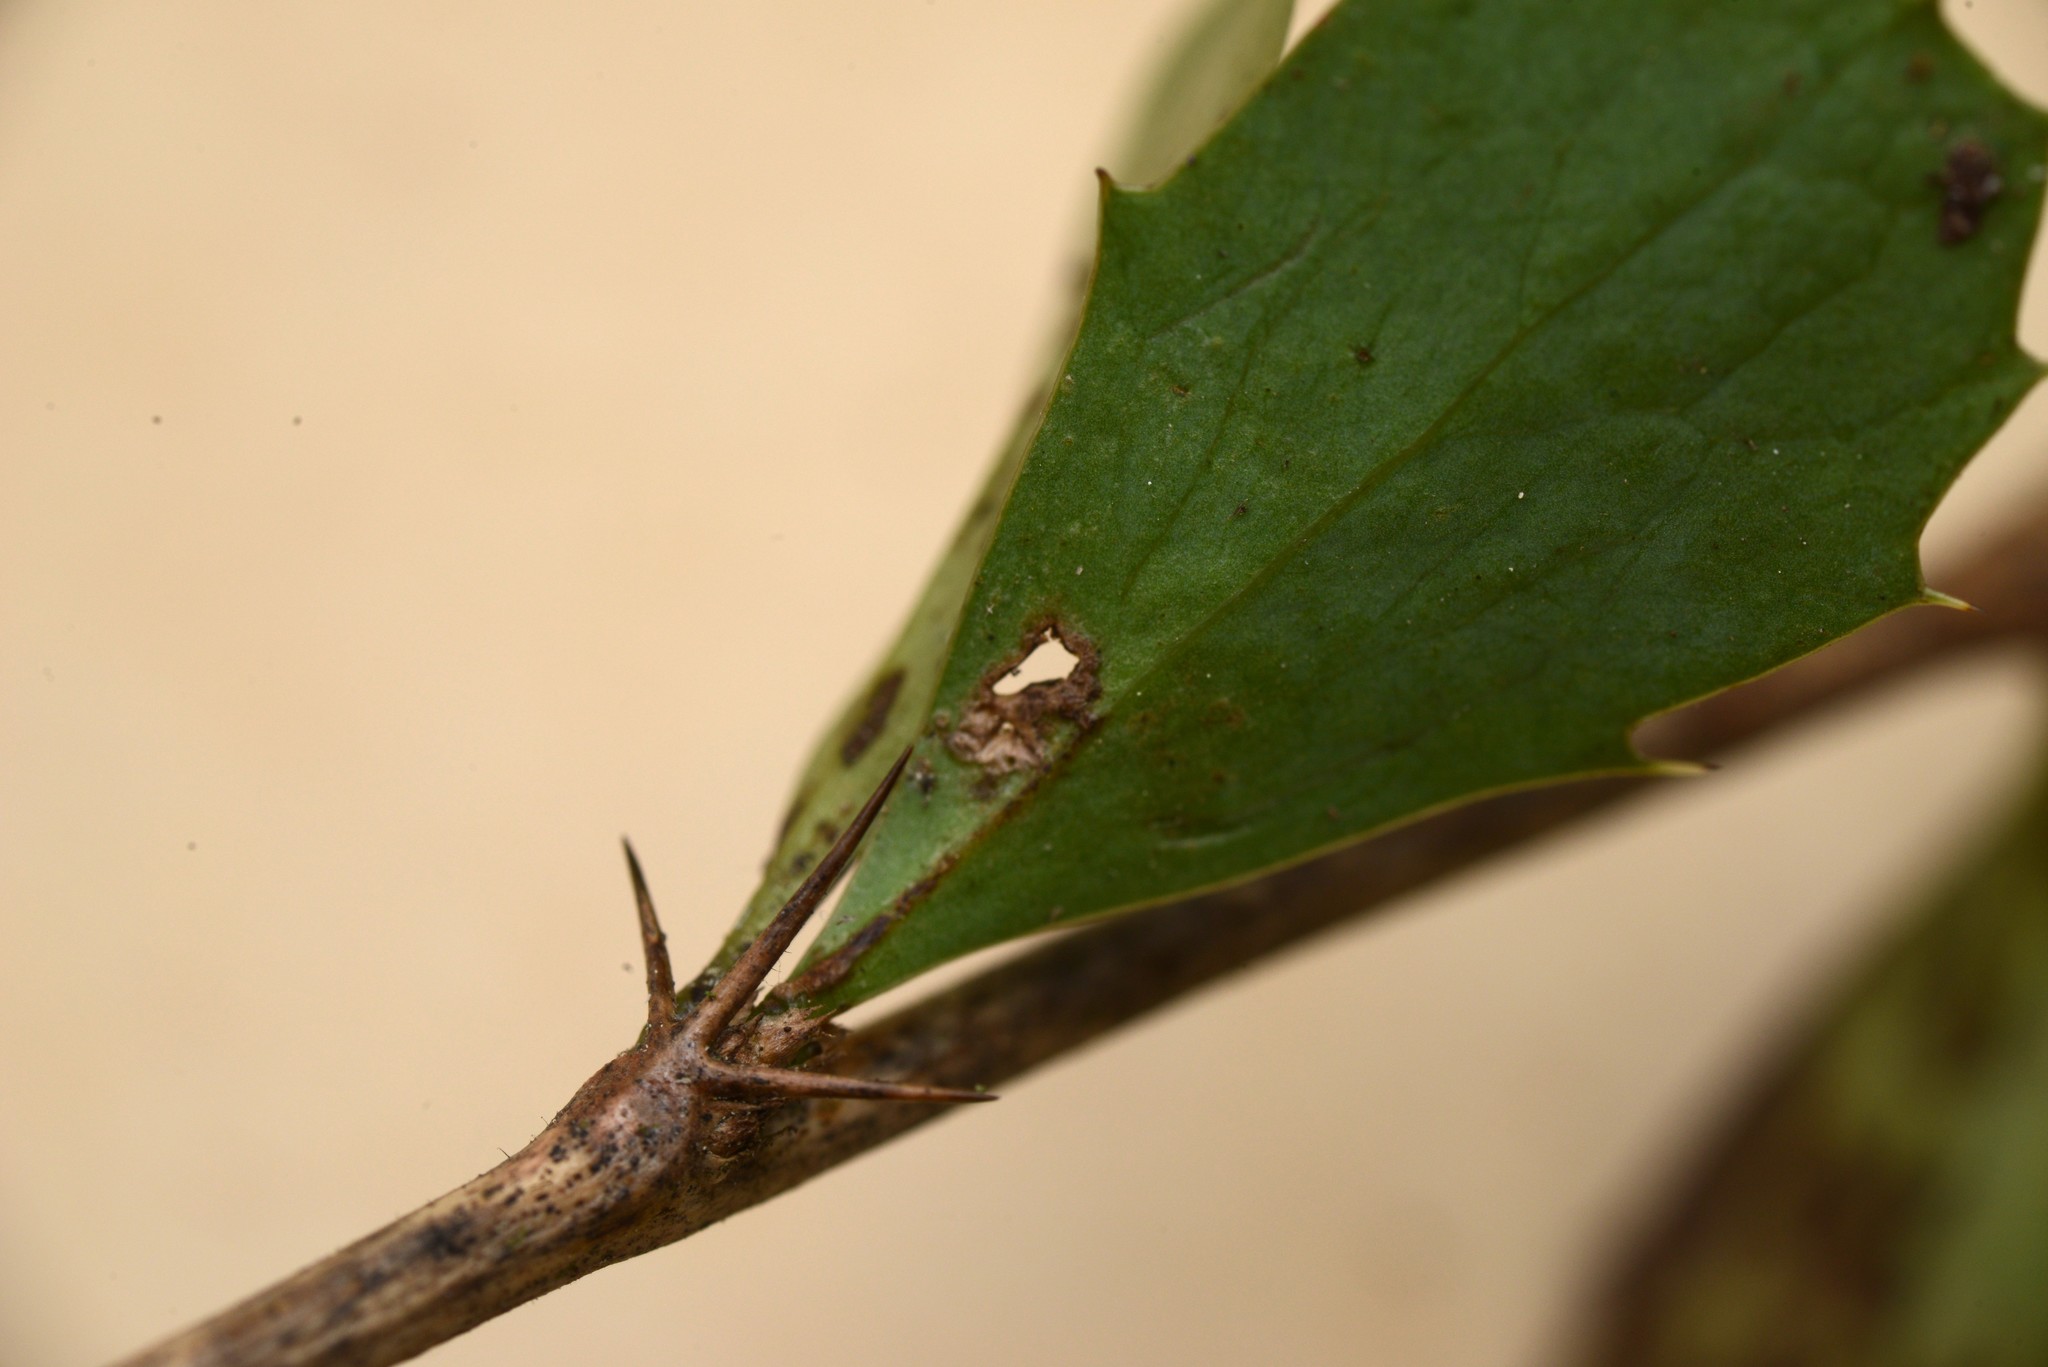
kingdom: Plantae
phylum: Tracheophyta
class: Magnoliopsida
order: Ranunculales
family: Berberidaceae
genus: Berberis
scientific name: Berberis glaucocarpa
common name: Great barberry
